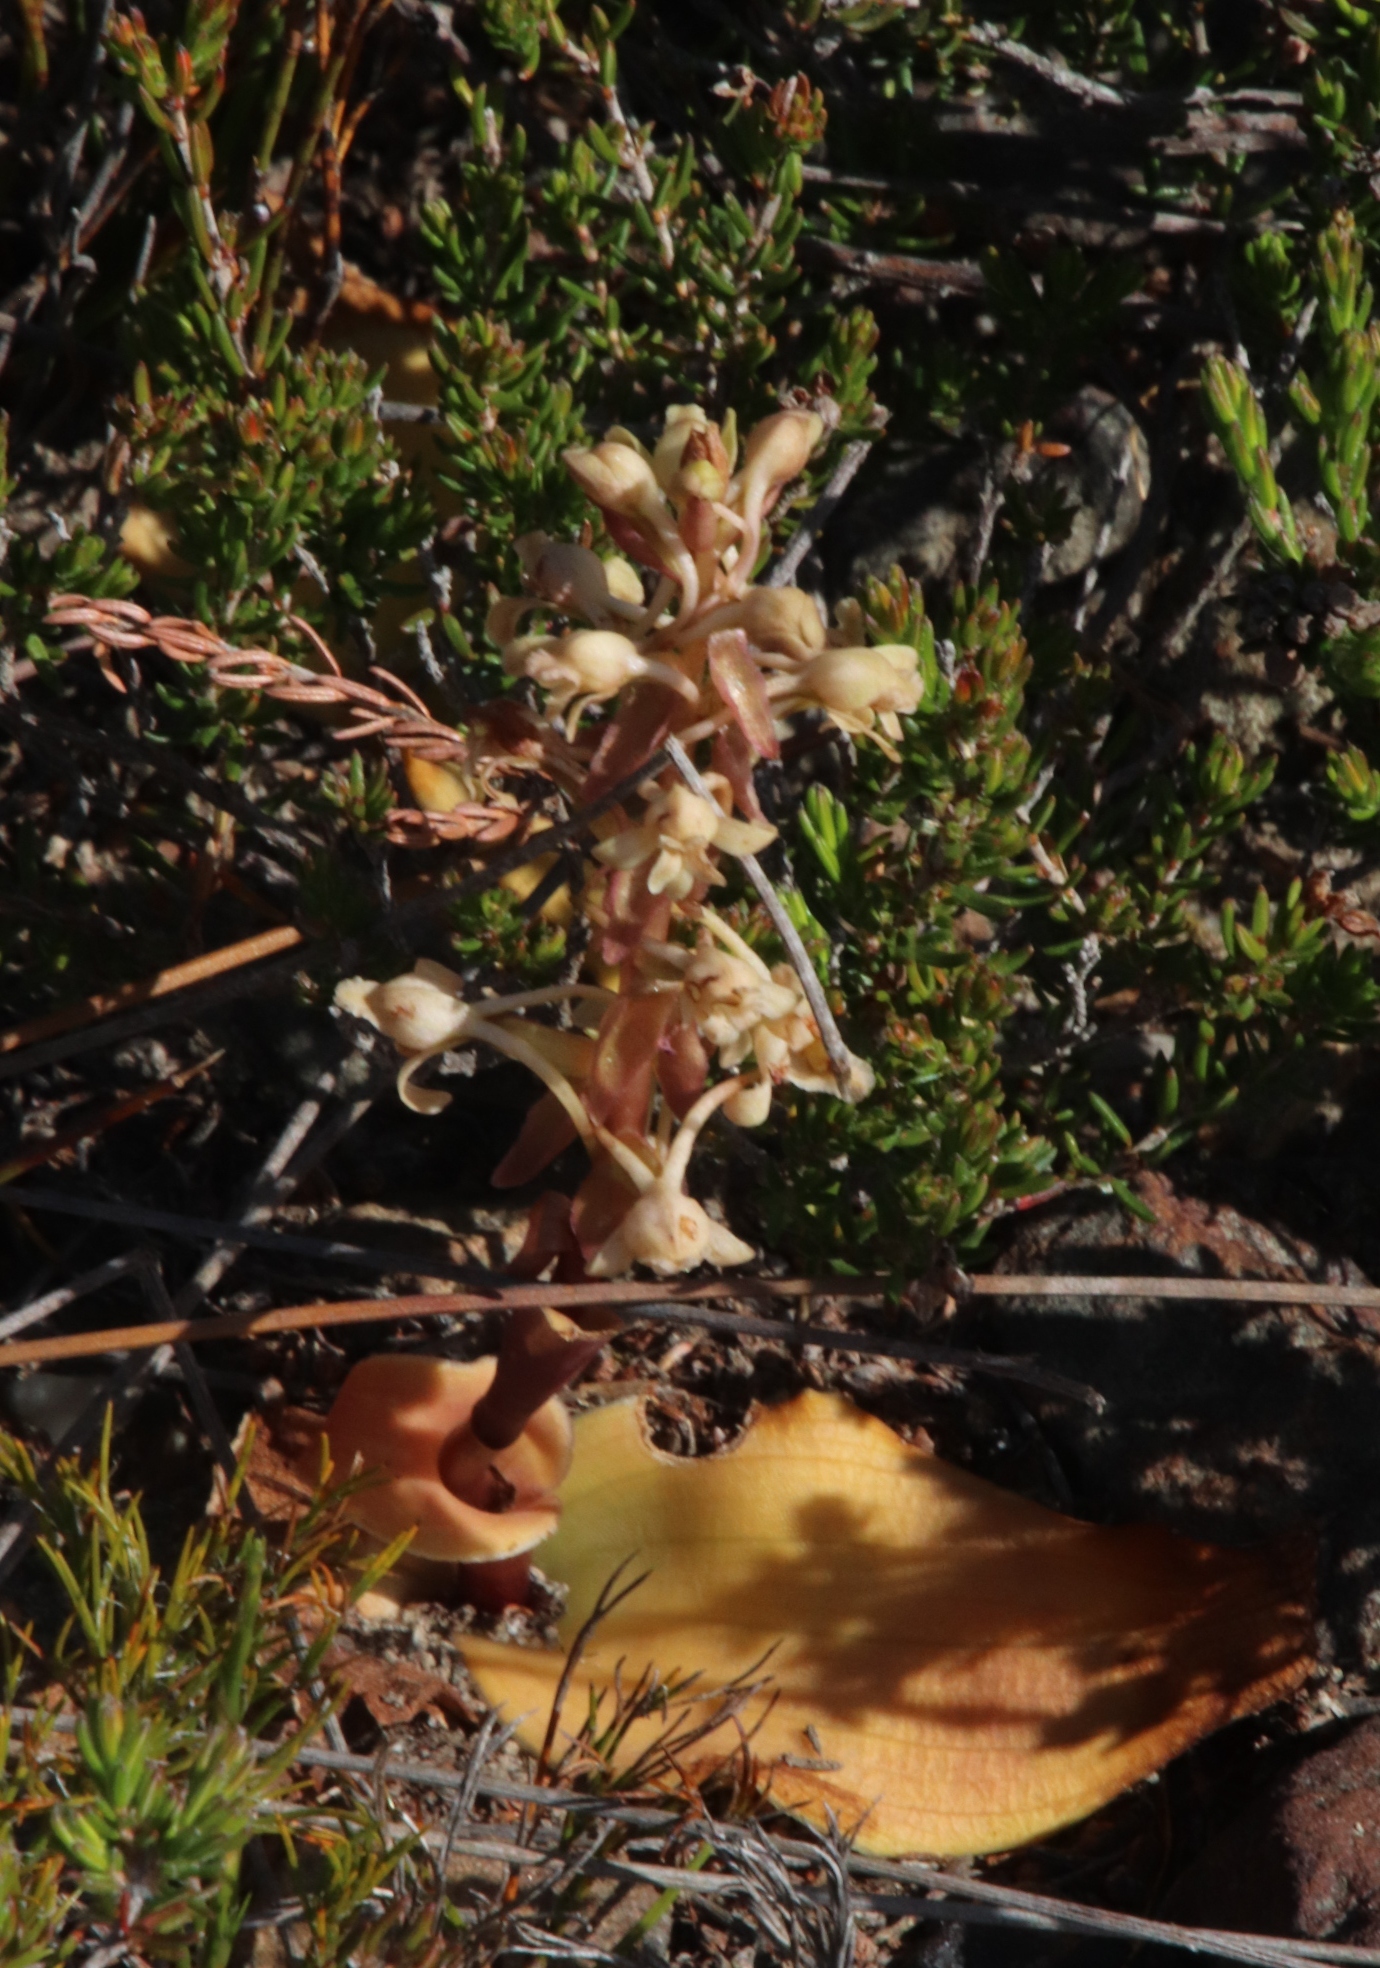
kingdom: Plantae
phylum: Tracheophyta
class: Liliopsida
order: Asparagales
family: Orchidaceae
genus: Satyrium
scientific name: Satyrium humile
